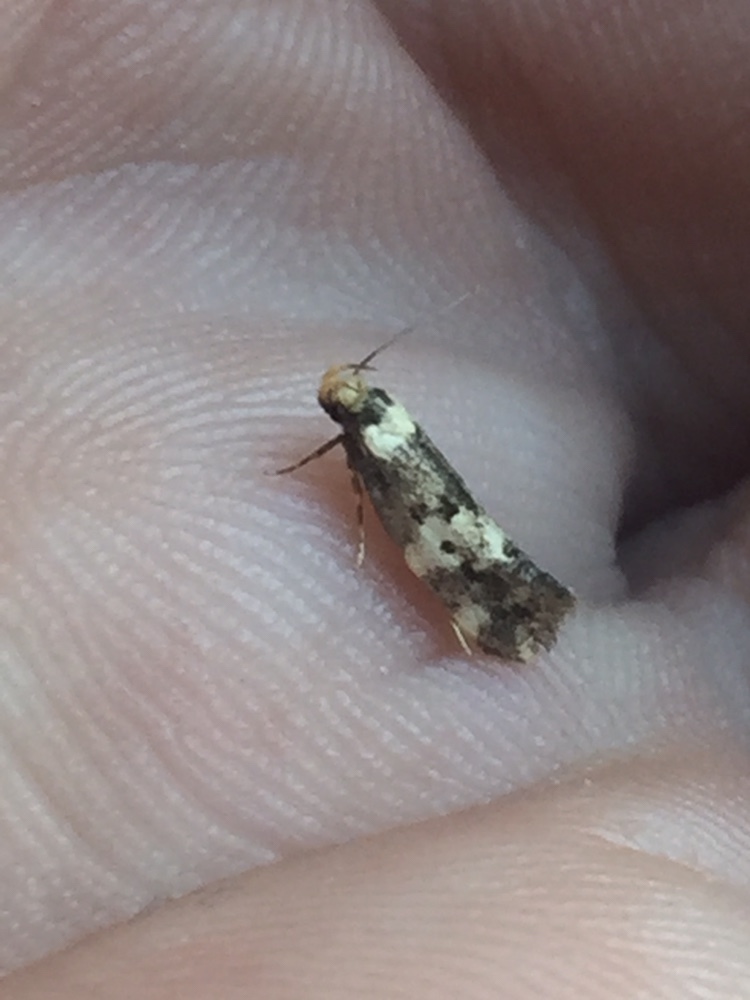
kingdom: Animalia
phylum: Arthropoda
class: Insecta
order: Lepidoptera
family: Oecophoridae
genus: Sphyrelata
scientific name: Sphyrelata amotella
